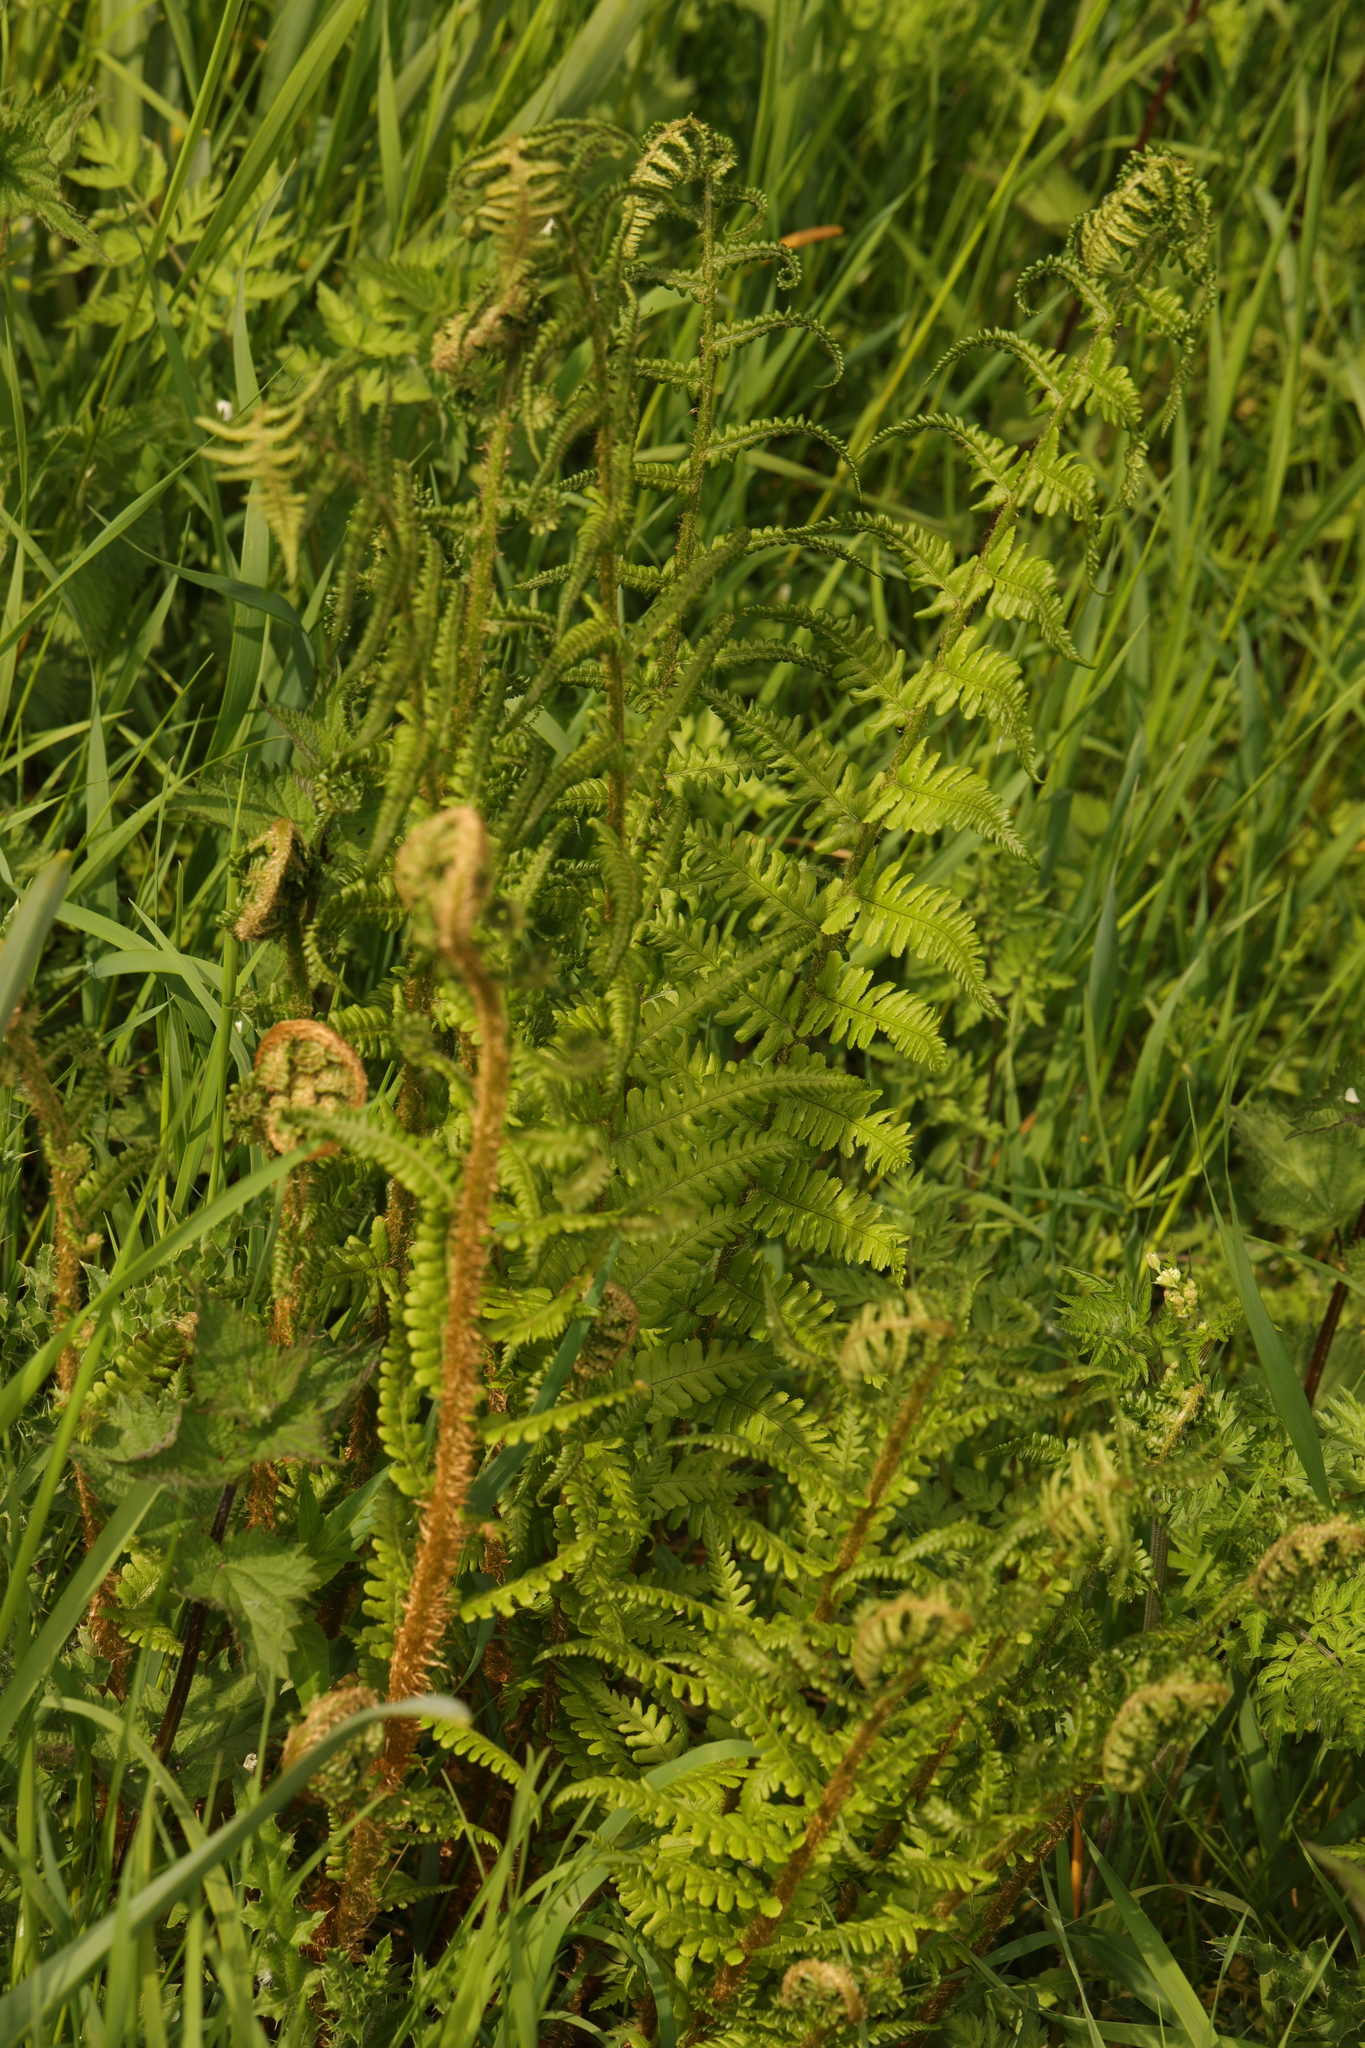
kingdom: Plantae
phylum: Tracheophyta
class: Polypodiopsida
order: Polypodiales
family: Dryopteridaceae
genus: Dryopteris
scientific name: Dryopteris filix-mas
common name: Male fern
